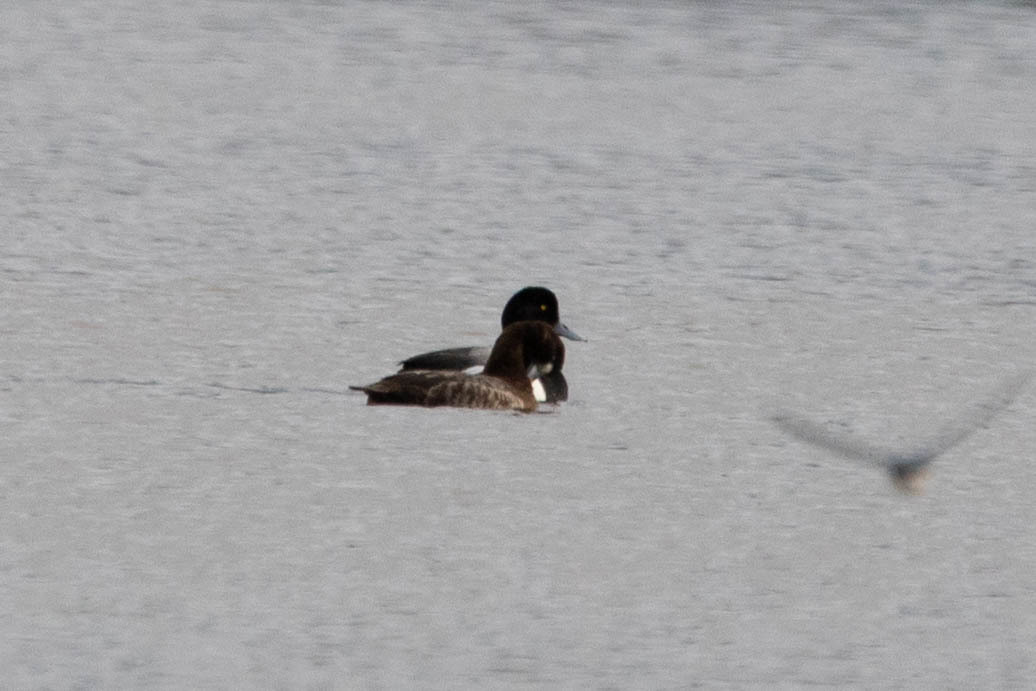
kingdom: Animalia
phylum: Chordata
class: Aves
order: Anseriformes
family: Anatidae
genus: Aythya
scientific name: Aythya marila
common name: Greater scaup
